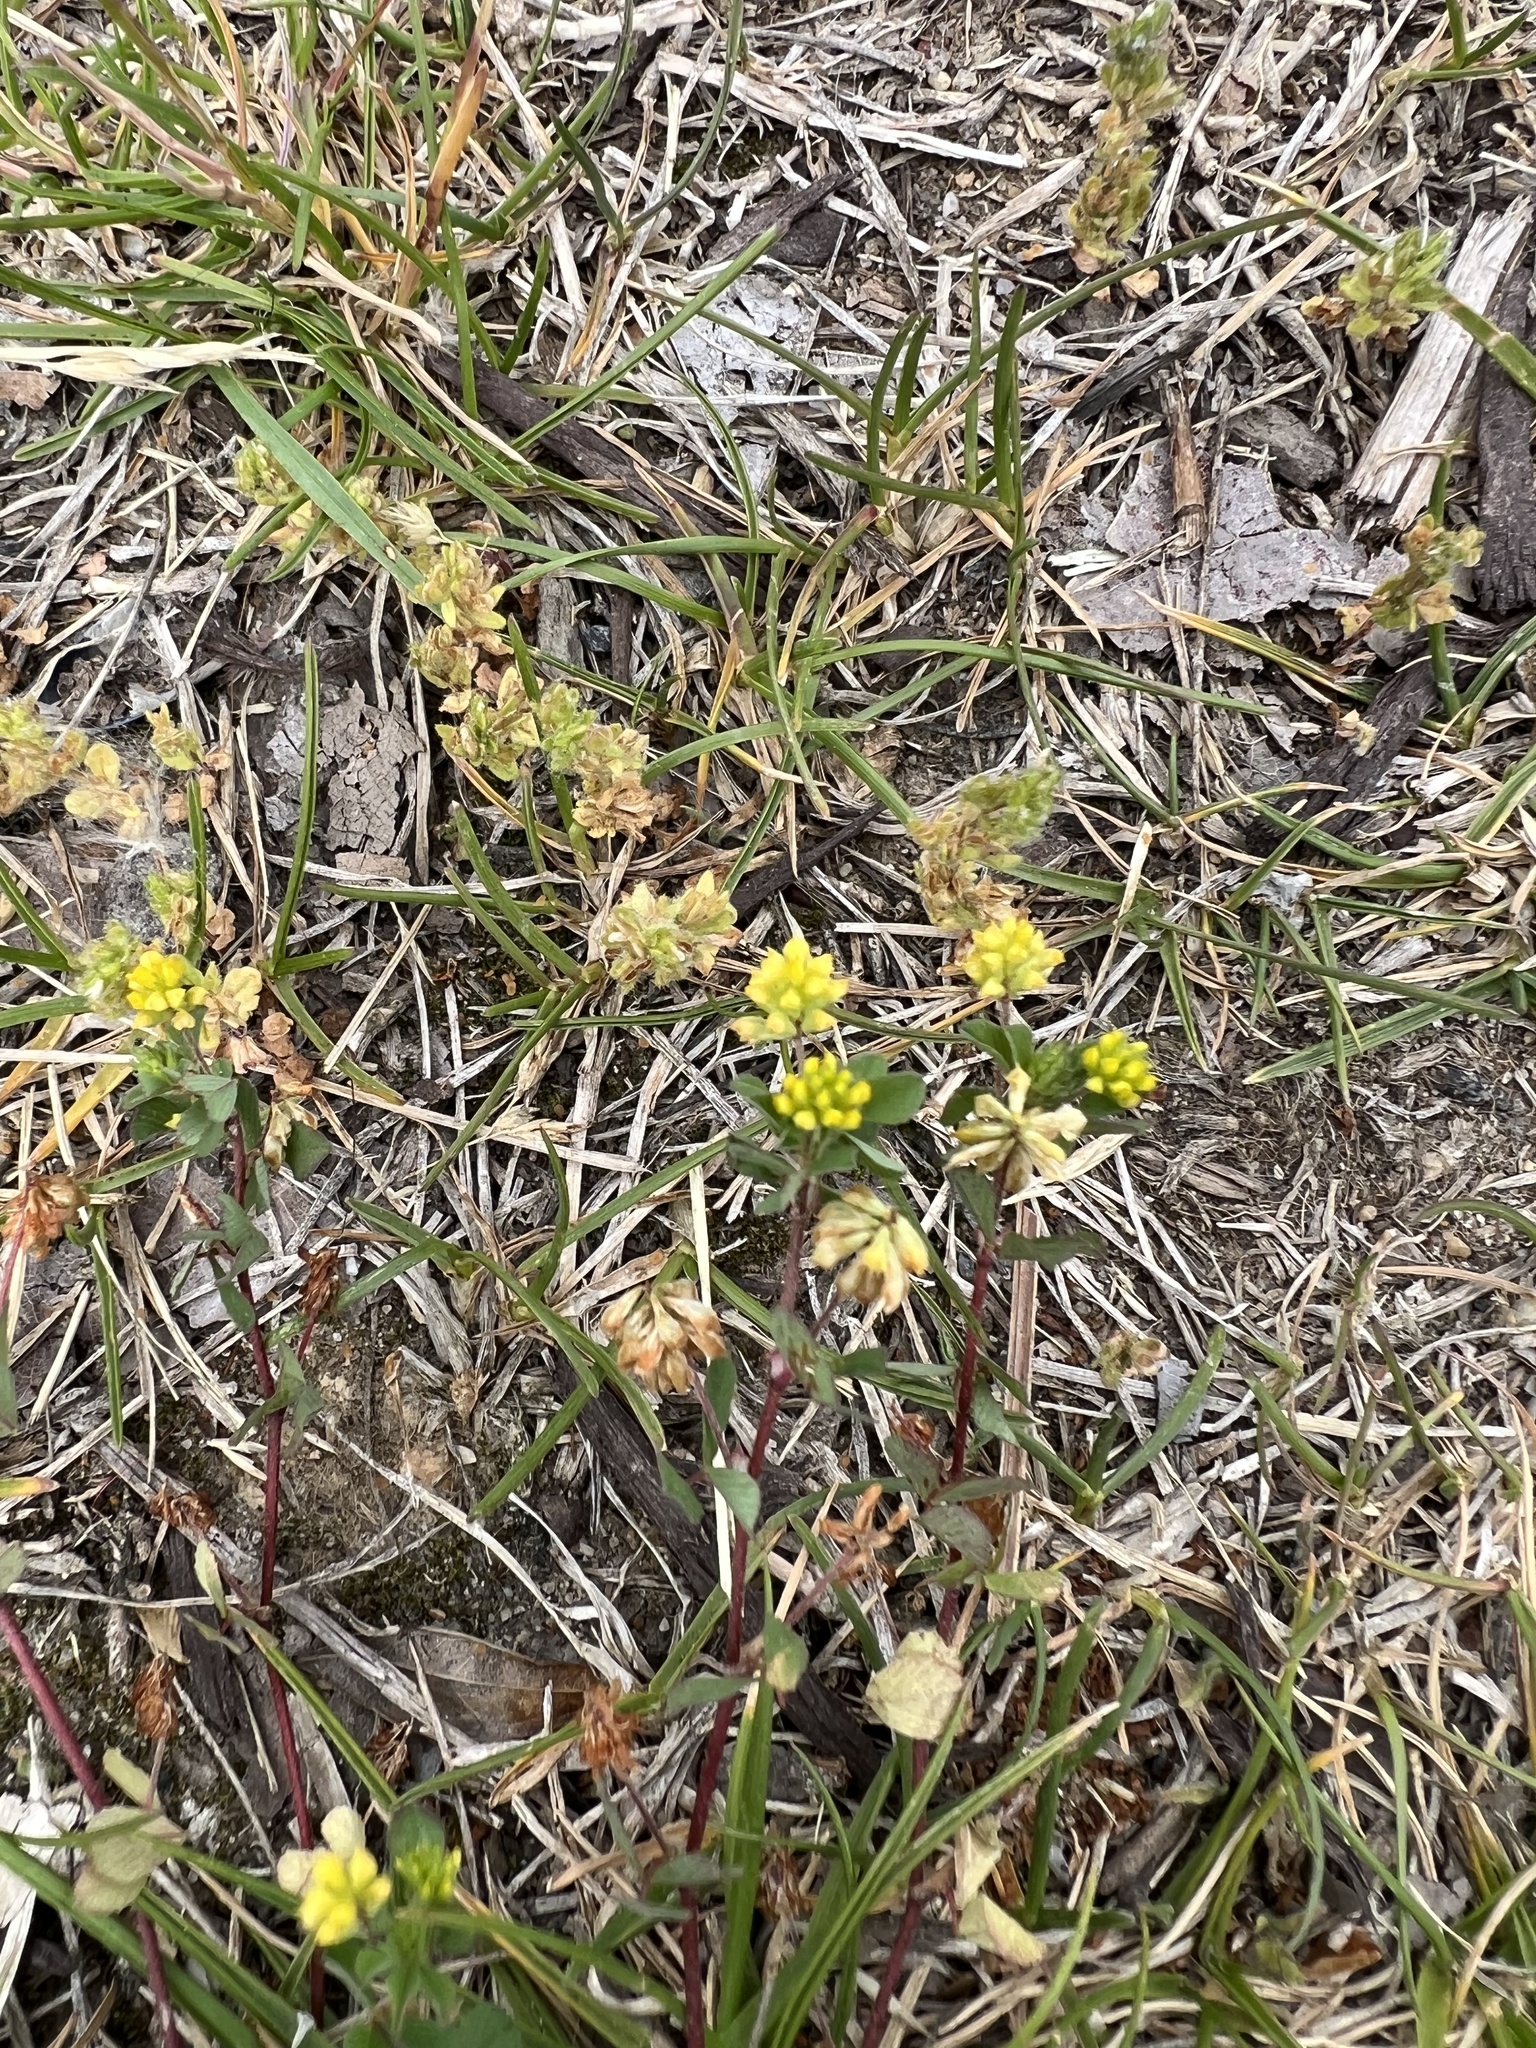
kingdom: Plantae
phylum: Tracheophyta
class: Magnoliopsida
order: Fabales
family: Fabaceae
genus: Trifolium
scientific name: Trifolium dubium
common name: Suckling clover
